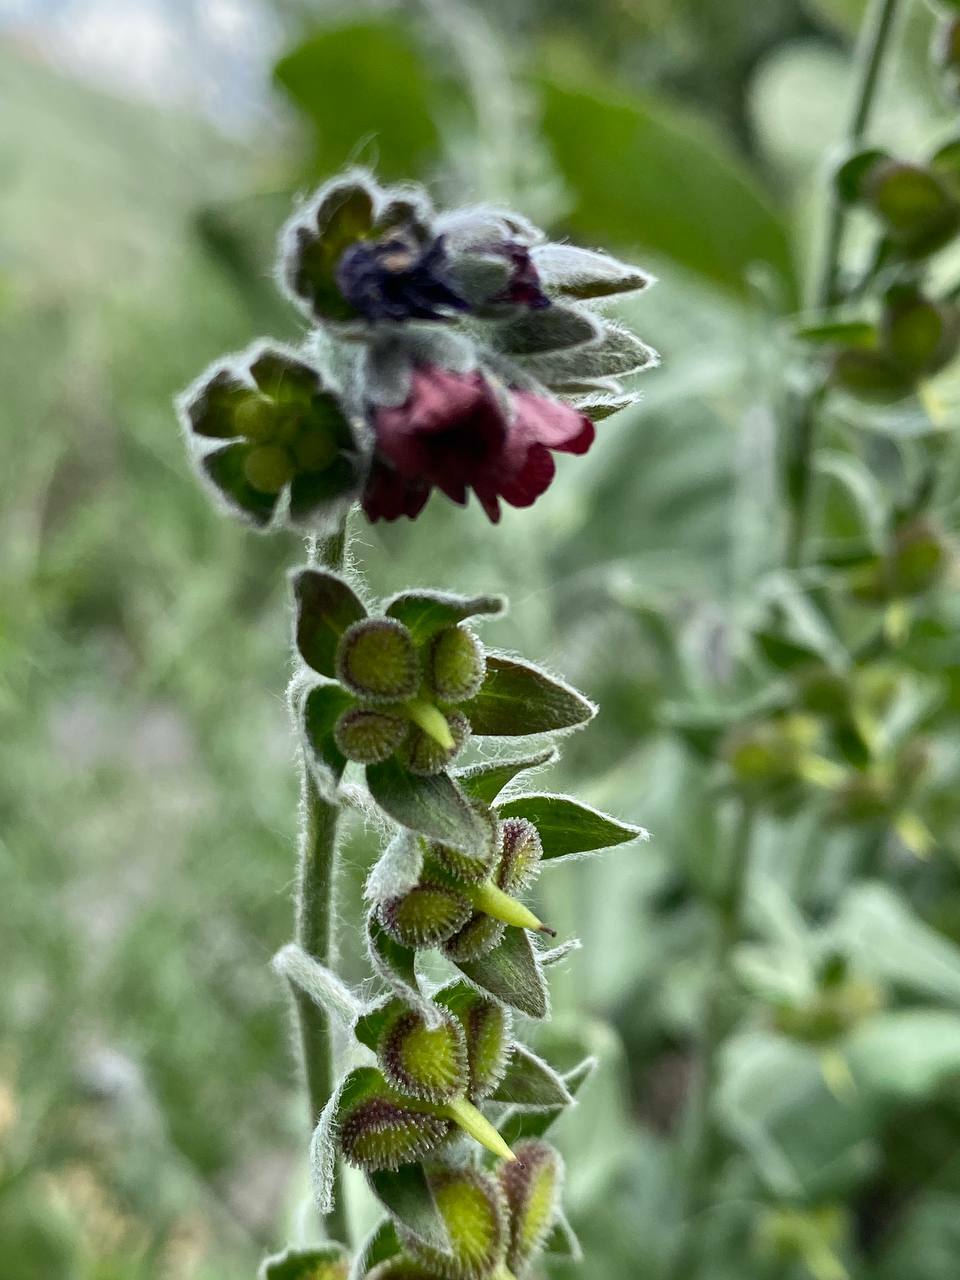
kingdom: Plantae
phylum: Tracheophyta
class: Magnoliopsida
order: Boraginales
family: Boraginaceae
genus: Cynoglossum
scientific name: Cynoglossum officinale
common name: Hound's-tongue
